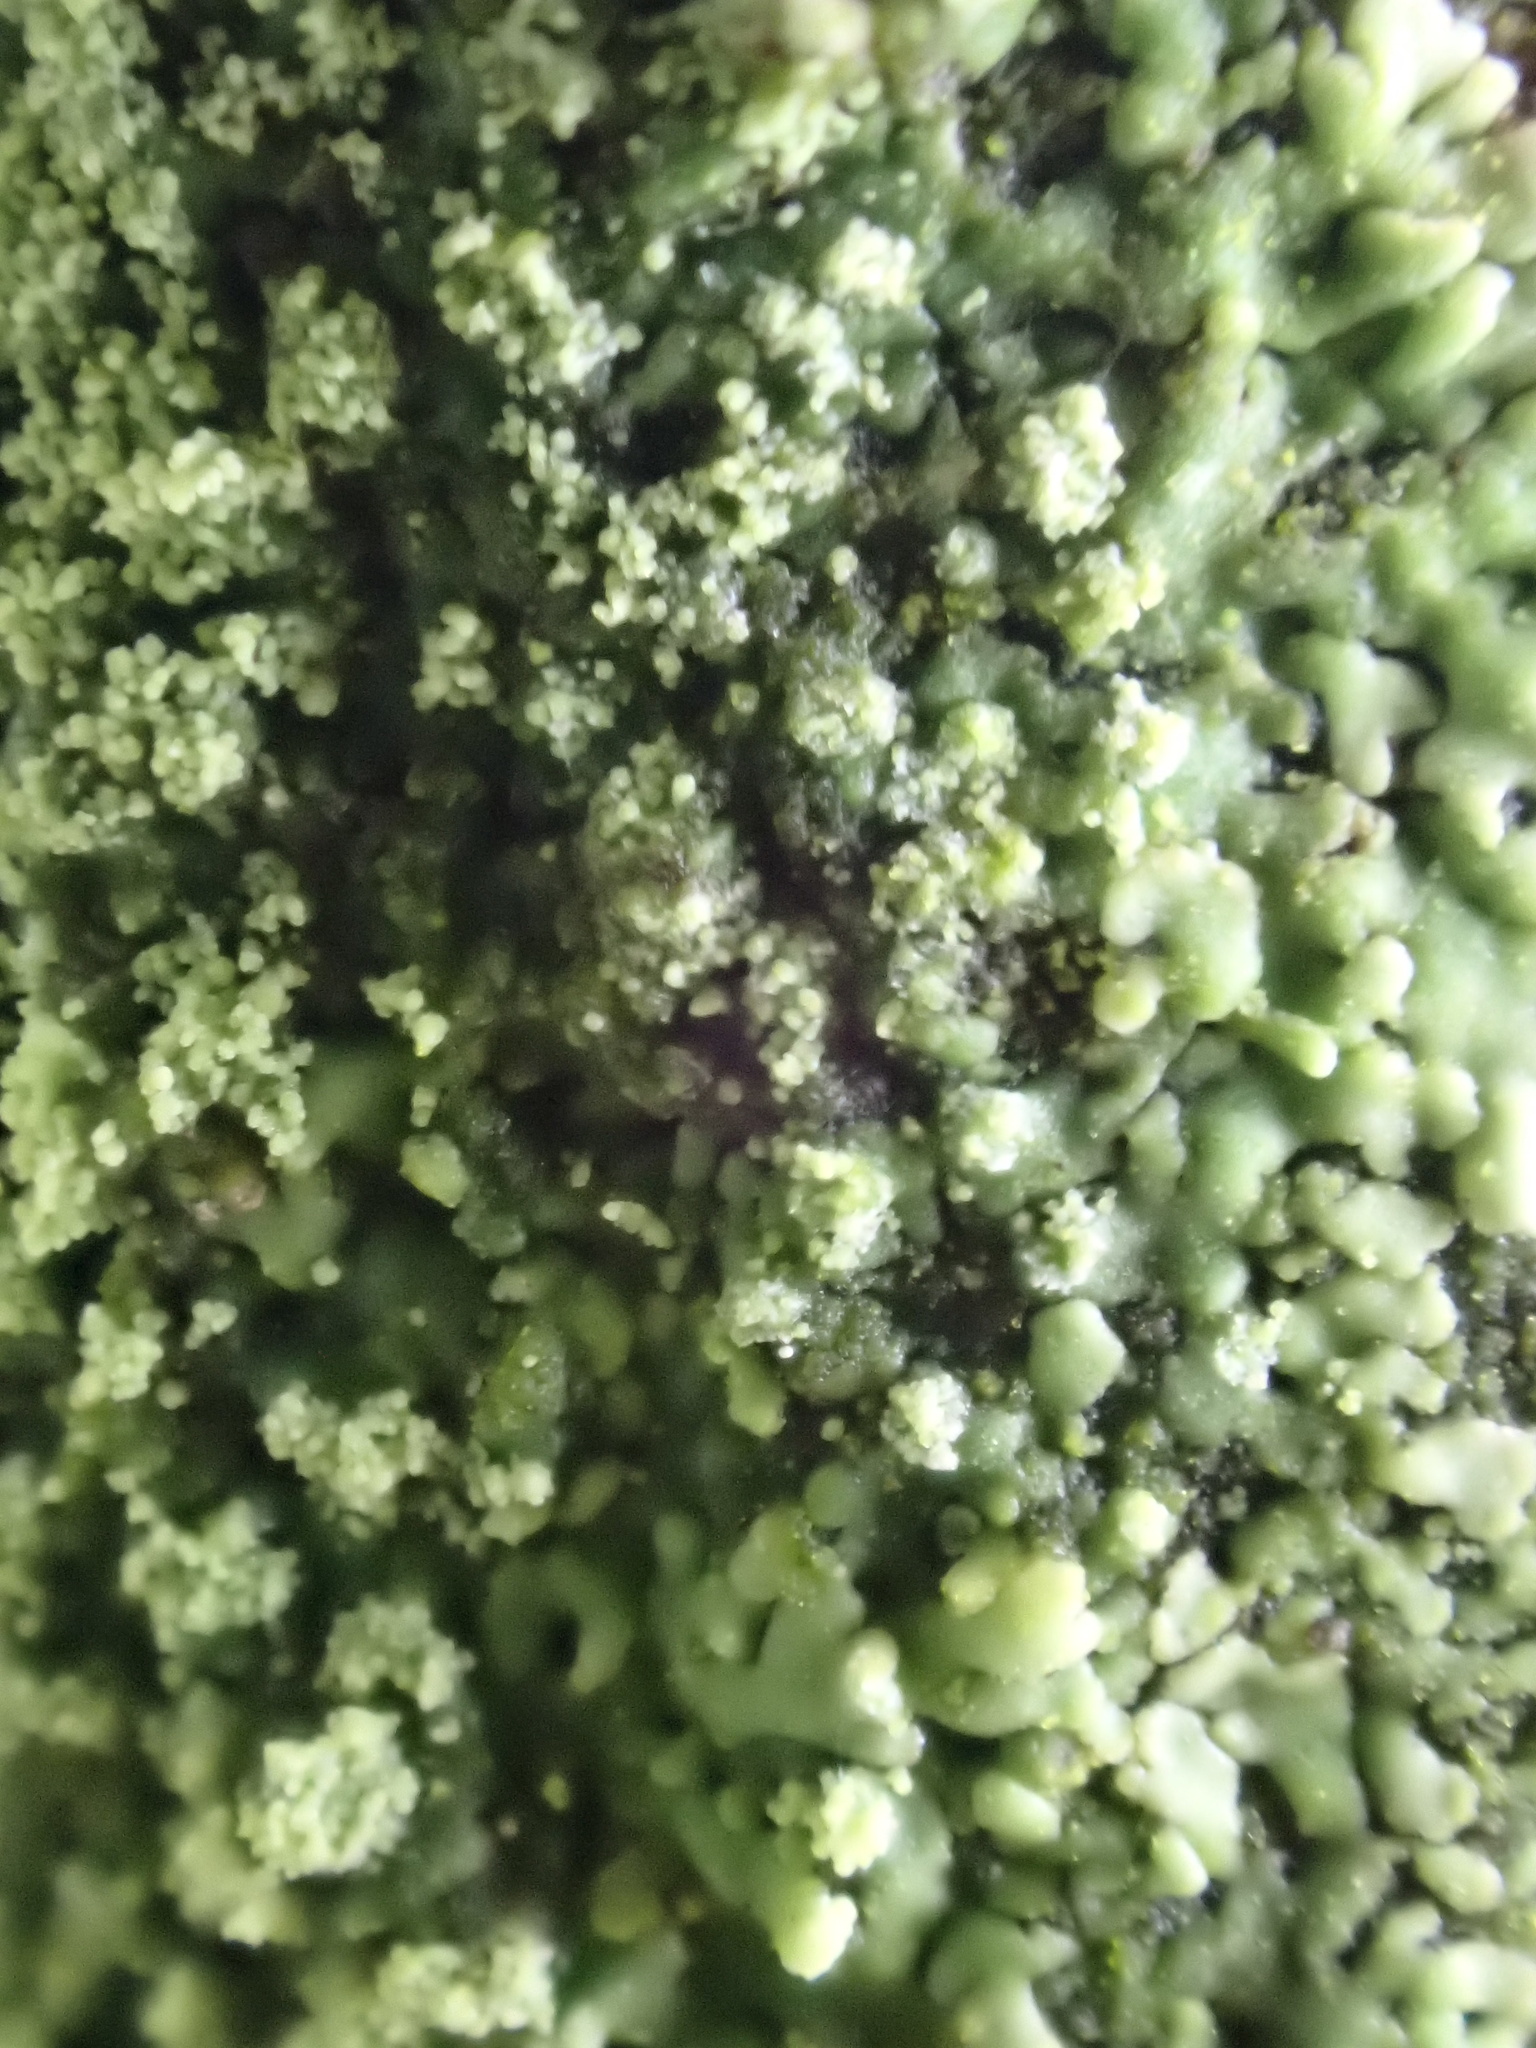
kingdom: Fungi
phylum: Ascomycota
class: Lecanoromycetes
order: Caliciales
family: Physciaceae
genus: Hyperphyscia
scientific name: Hyperphyscia adglutinata
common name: Grainy shadow-crust lichen
